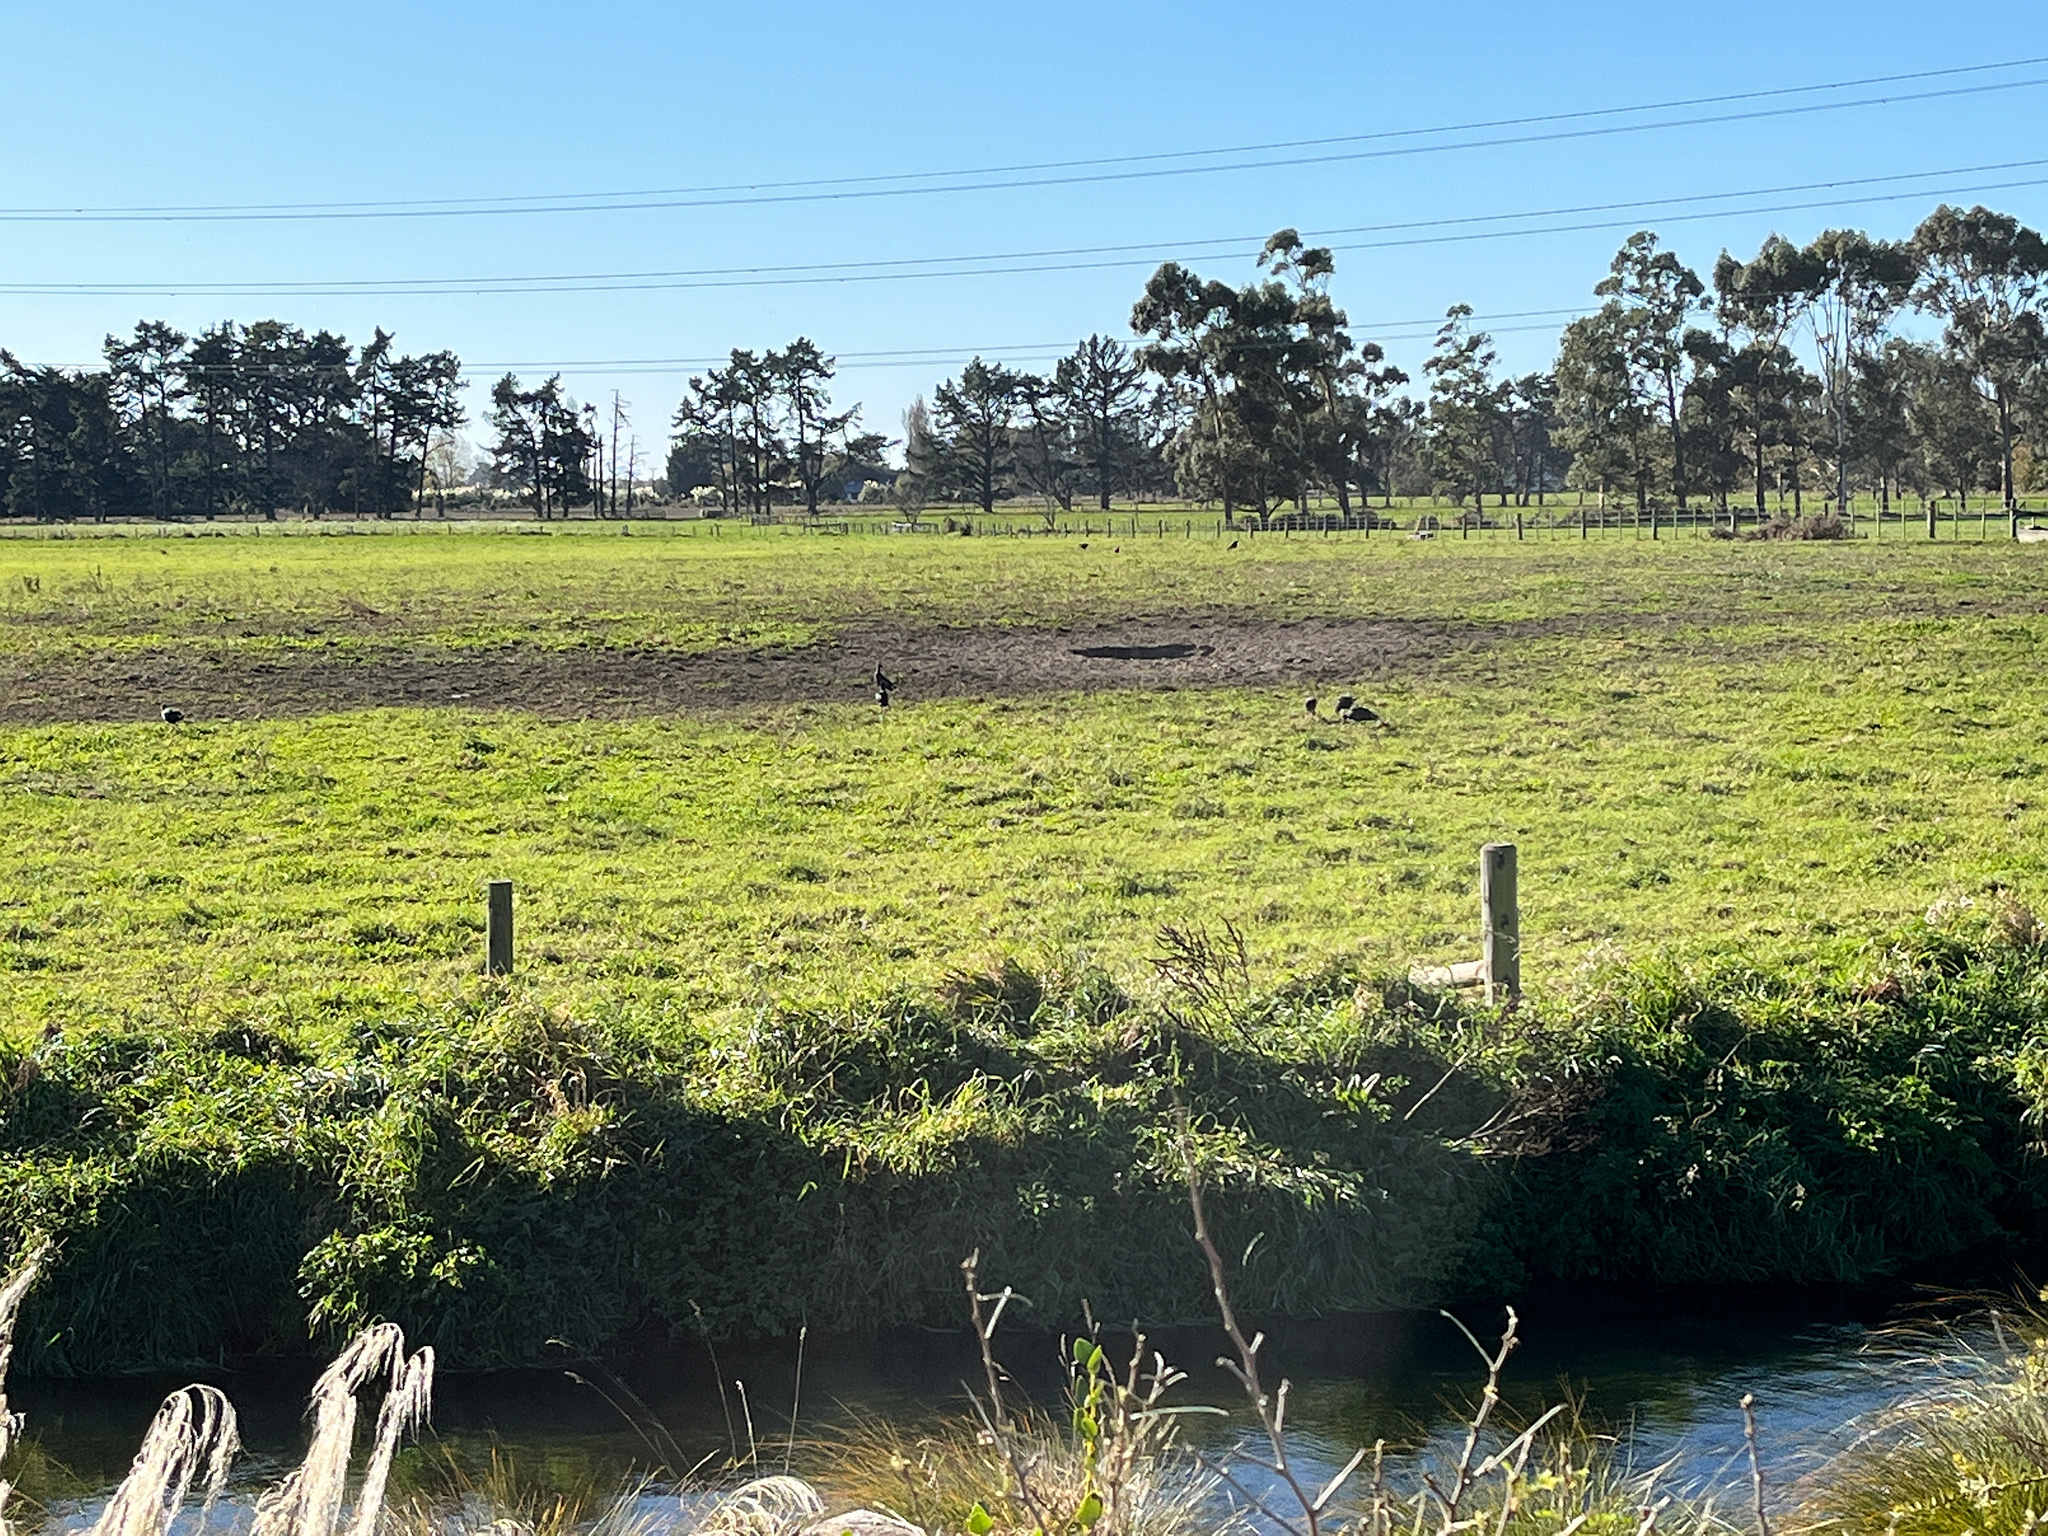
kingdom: Animalia
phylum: Chordata
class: Aves
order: Gruiformes
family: Rallidae
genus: Porphyrio
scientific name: Porphyrio melanotus
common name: Australasian swamphen
